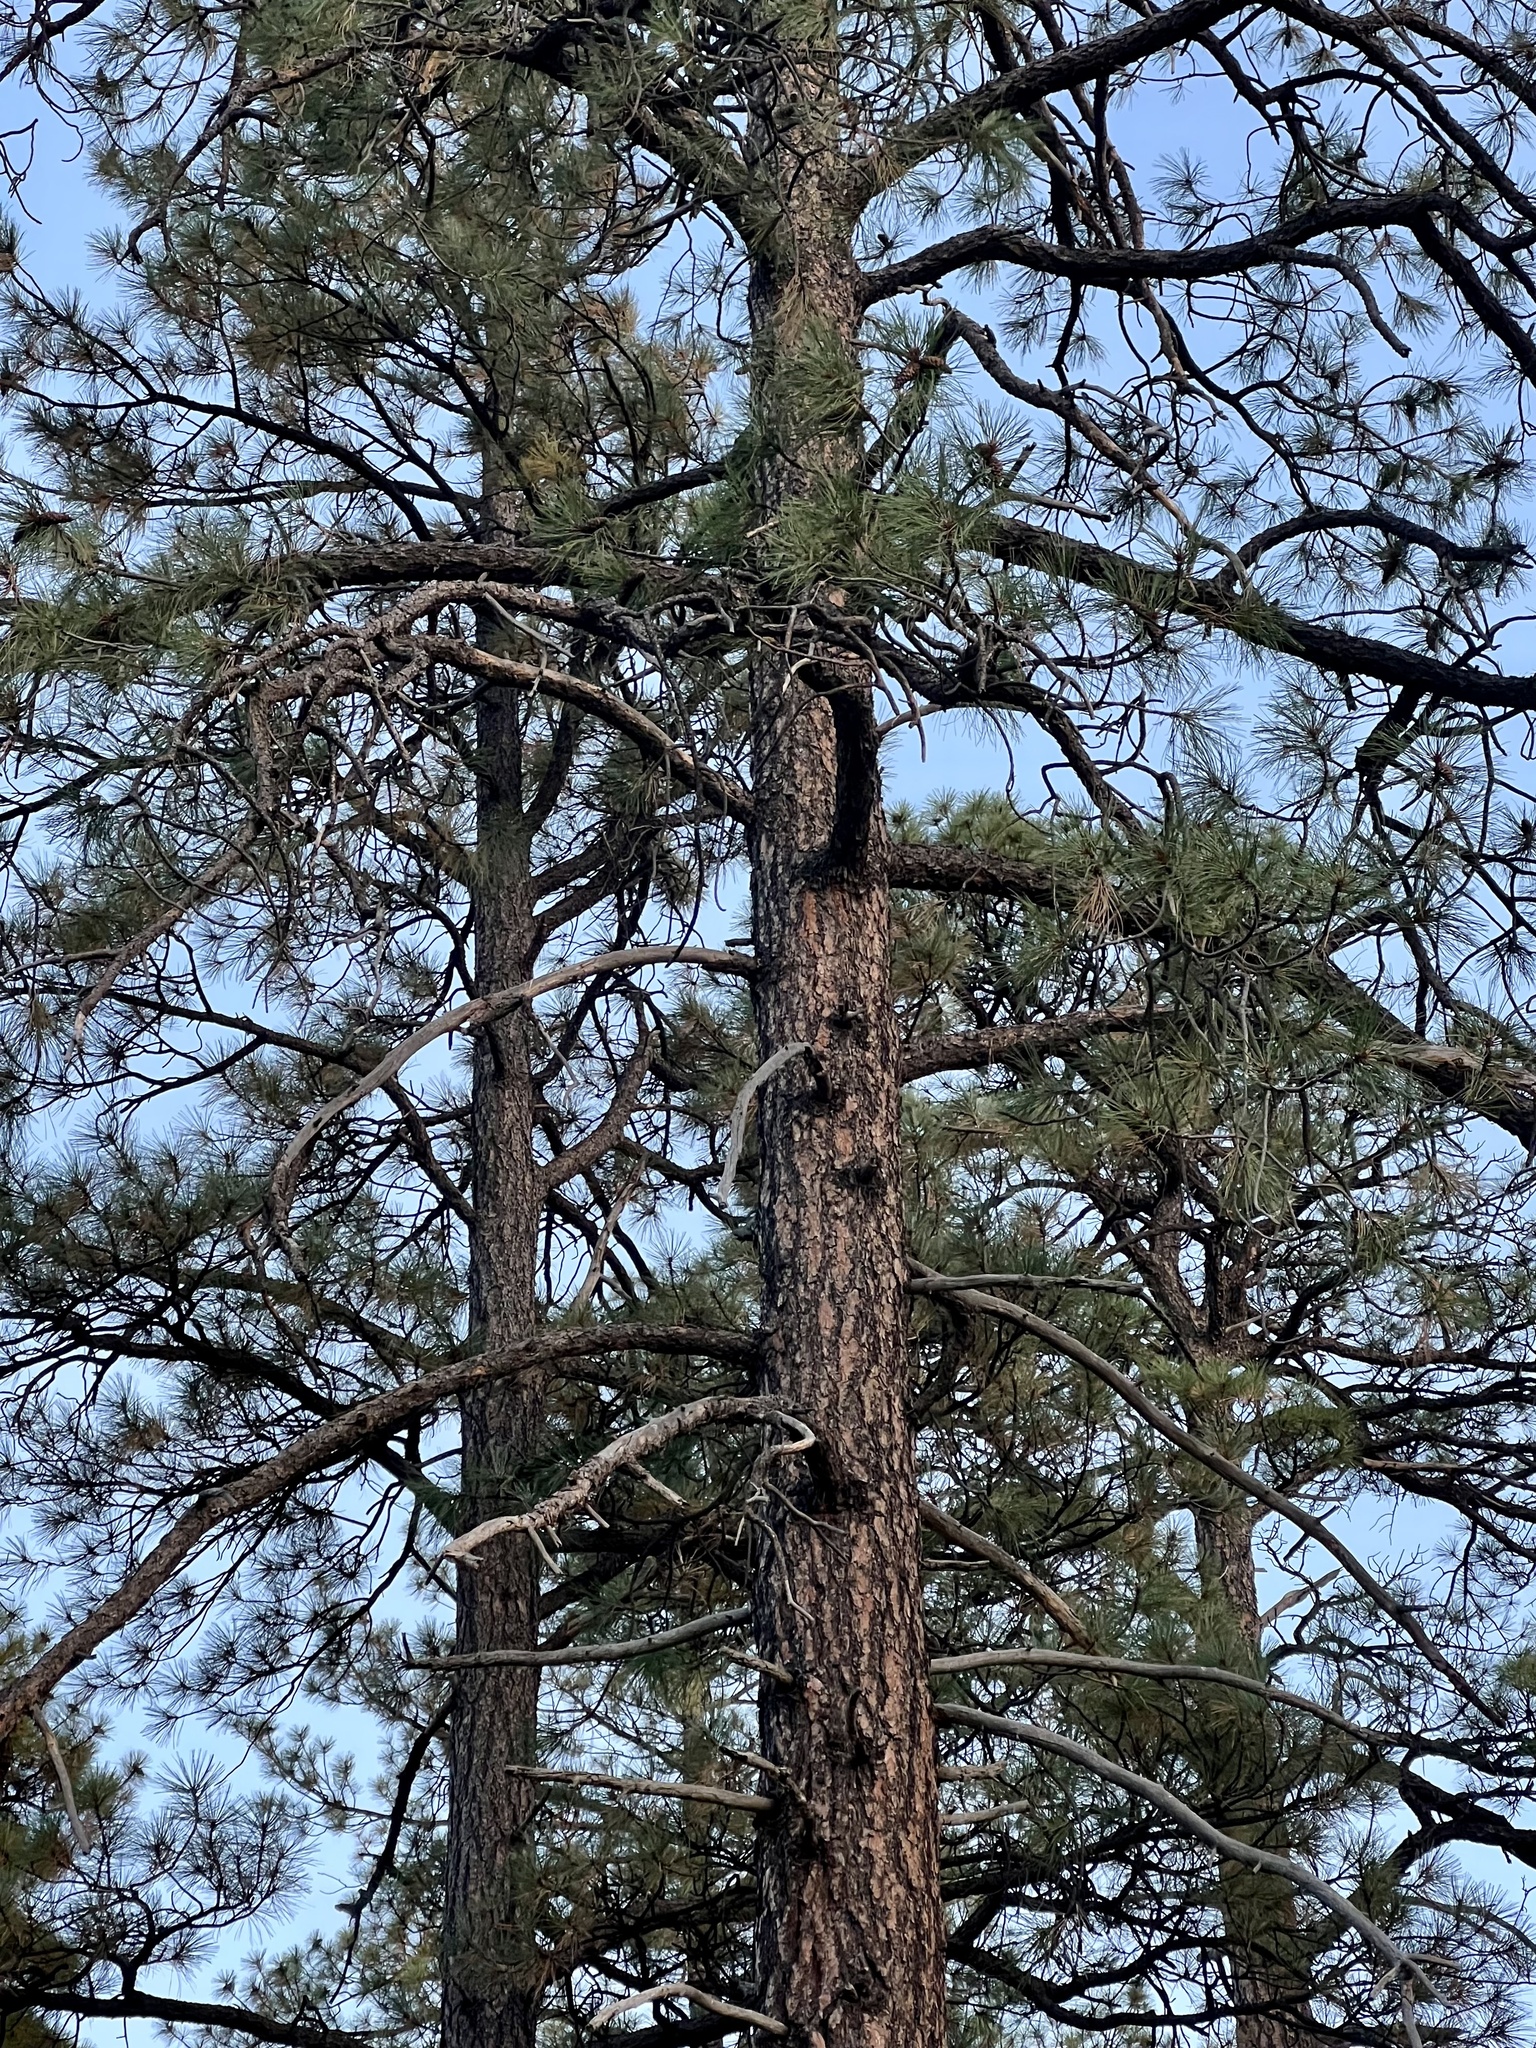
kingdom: Plantae
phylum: Tracheophyta
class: Pinopsida
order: Pinales
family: Pinaceae
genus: Pinus
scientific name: Pinus ponderosa
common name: Western yellow-pine
